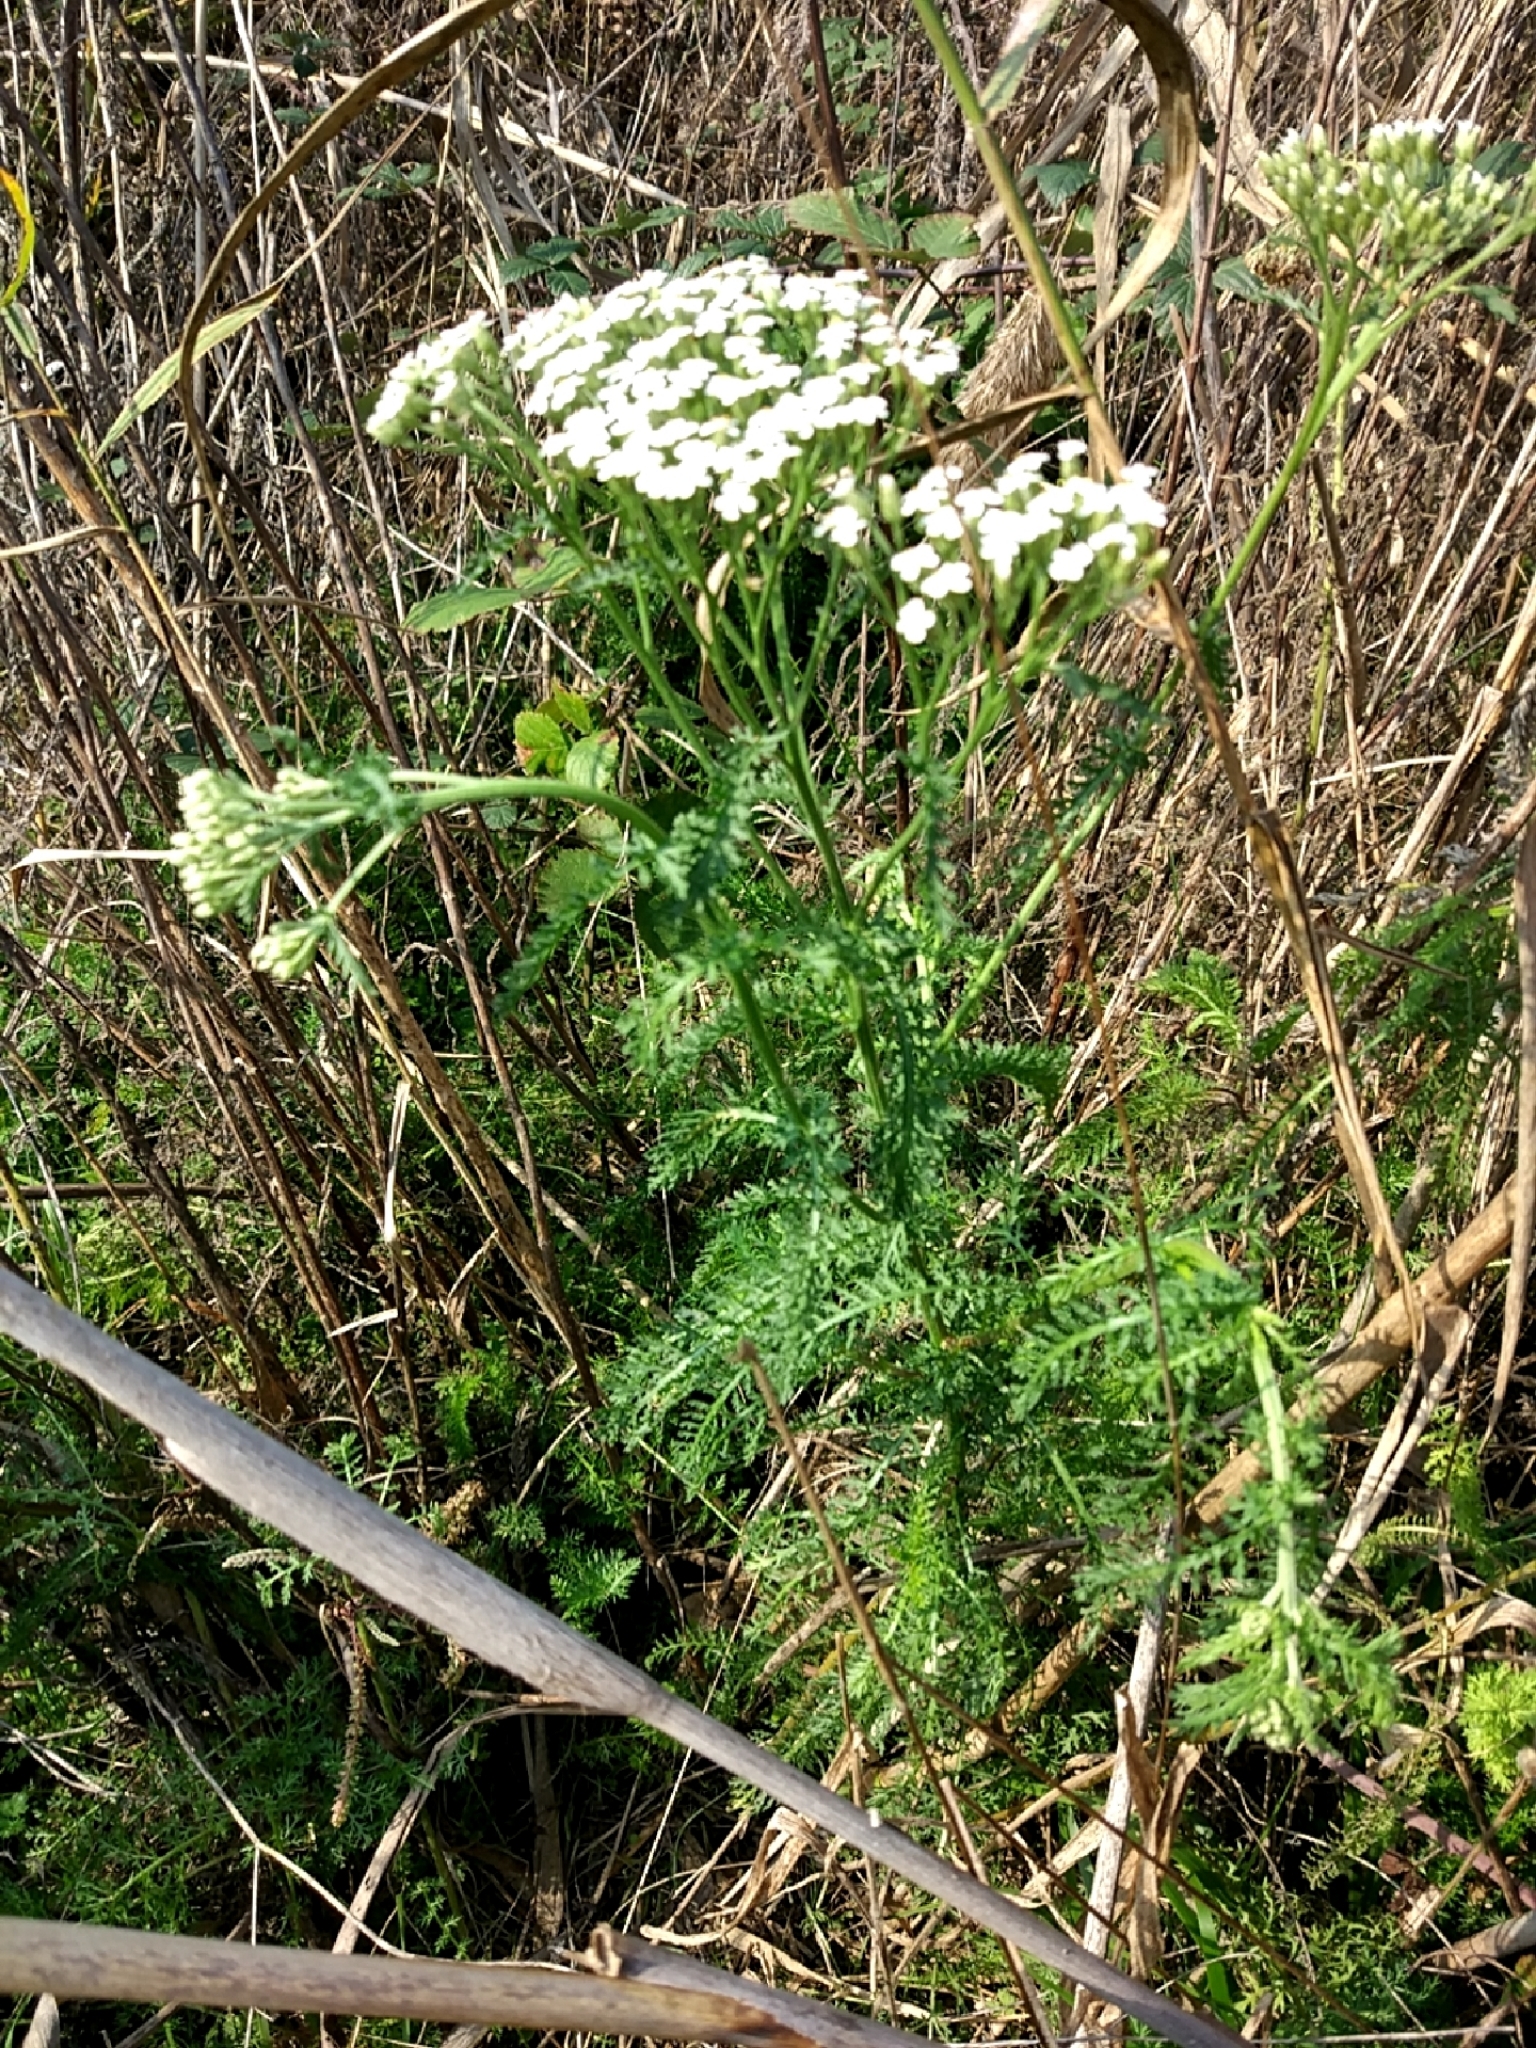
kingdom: Plantae
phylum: Tracheophyta
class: Magnoliopsida
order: Asterales
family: Asteraceae
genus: Achillea
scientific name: Achillea millefolium
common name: Yarrow
